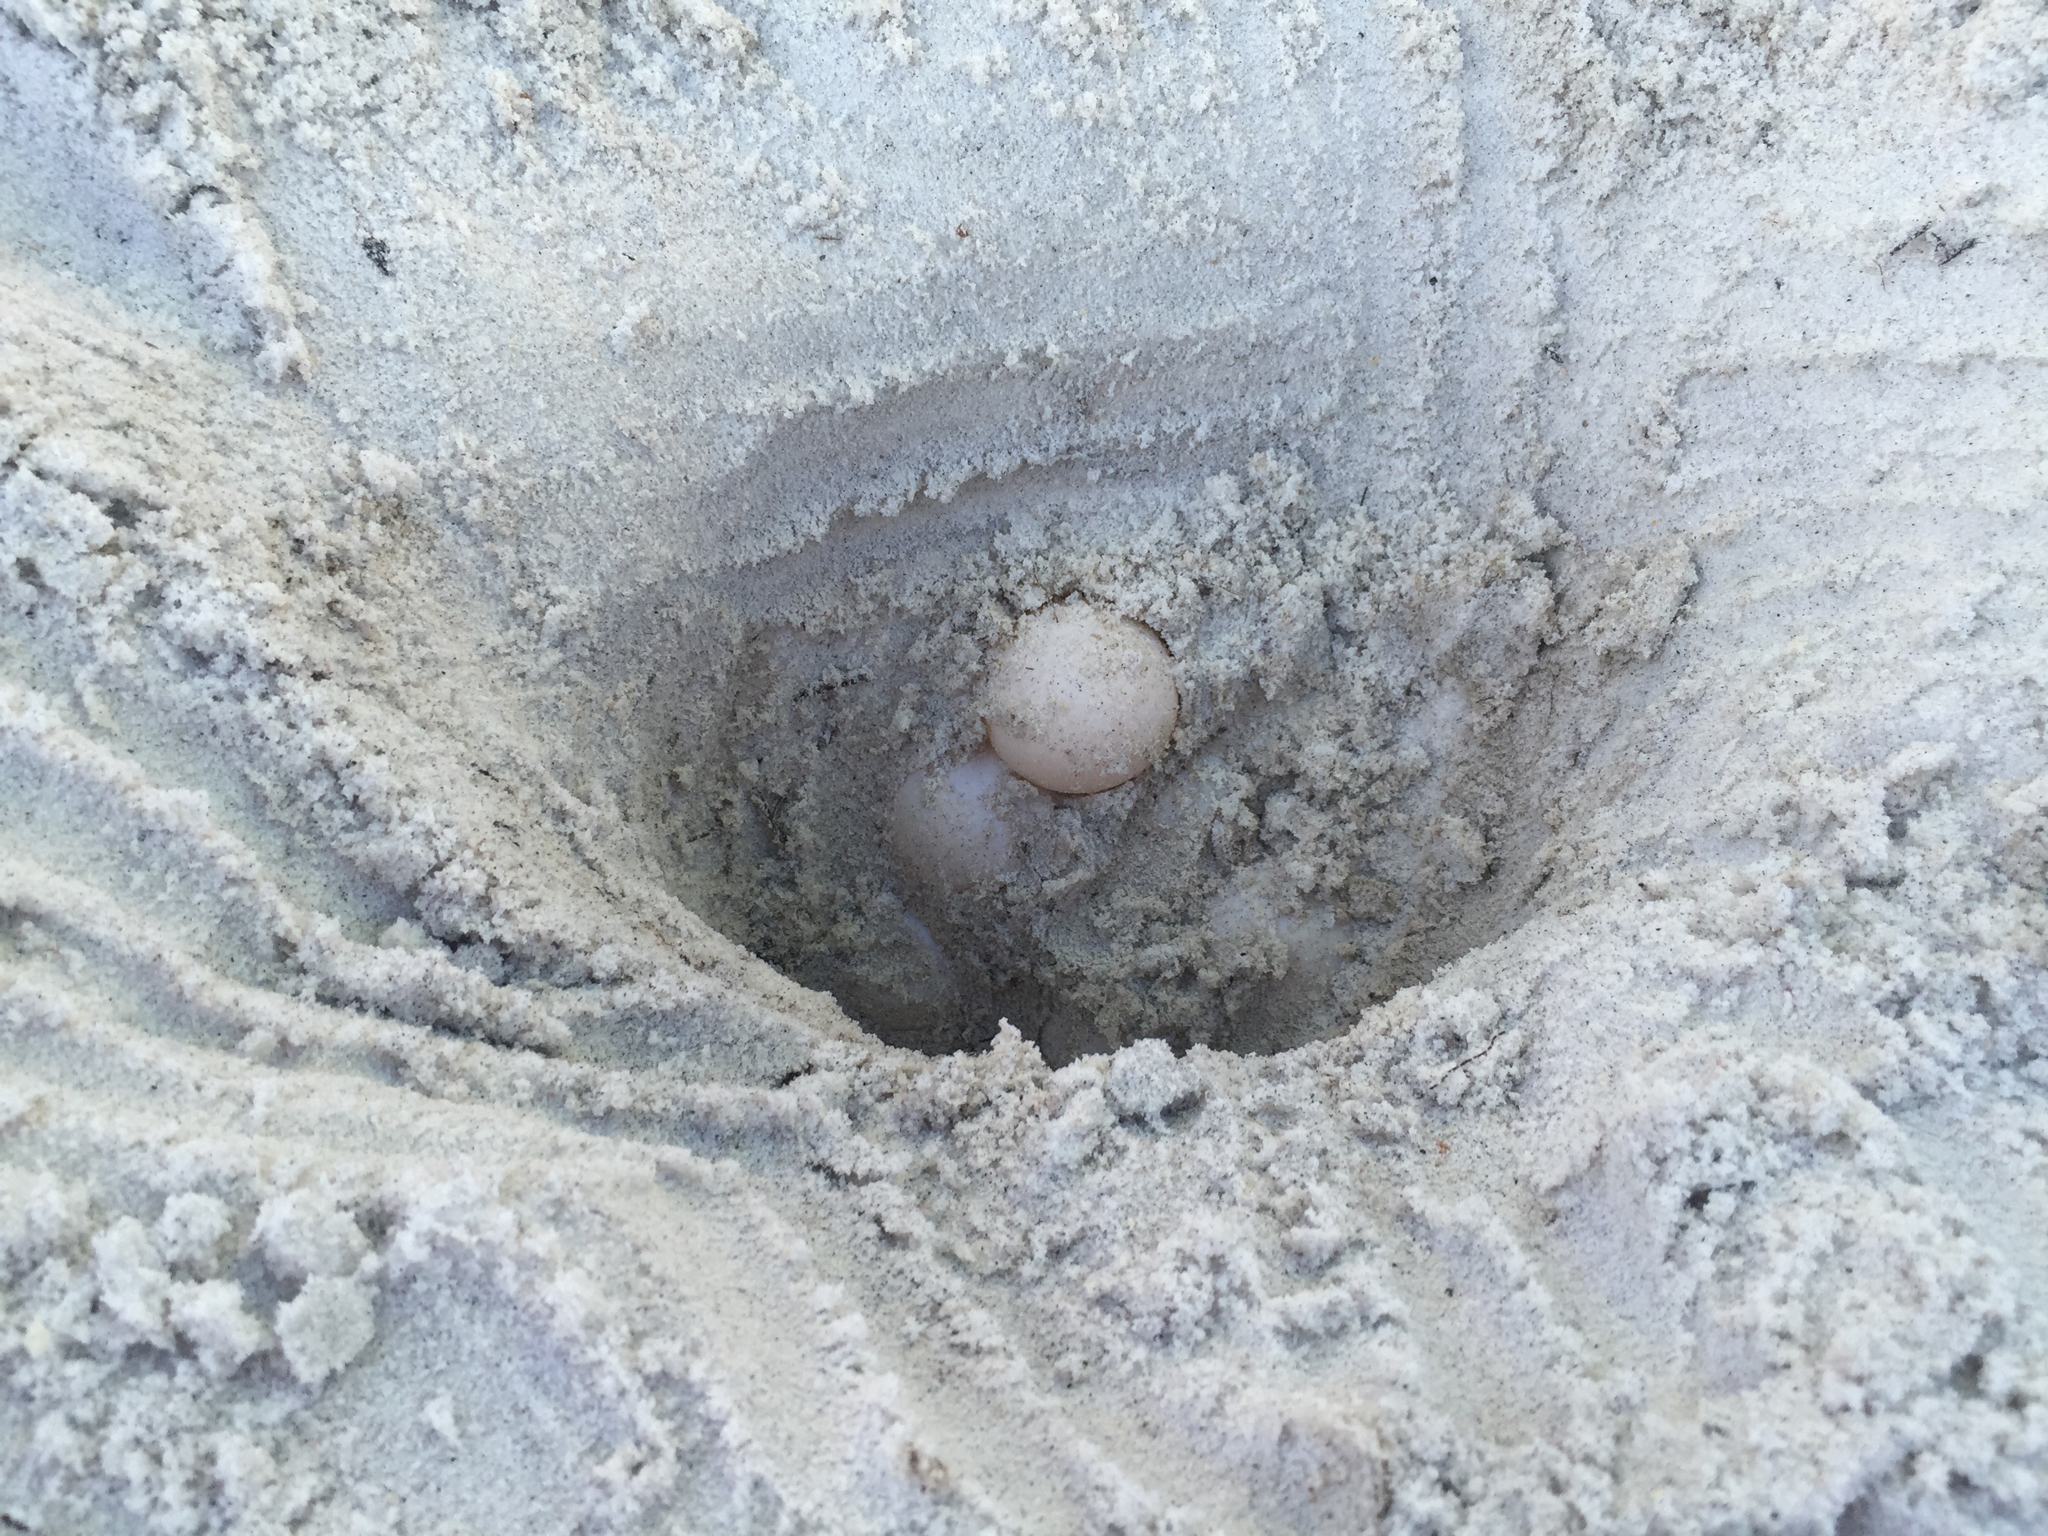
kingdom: Animalia
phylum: Chordata
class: Testudines
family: Cheloniidae
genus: Caretta
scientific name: Caretta caretta
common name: Loggerhead sea turtle
